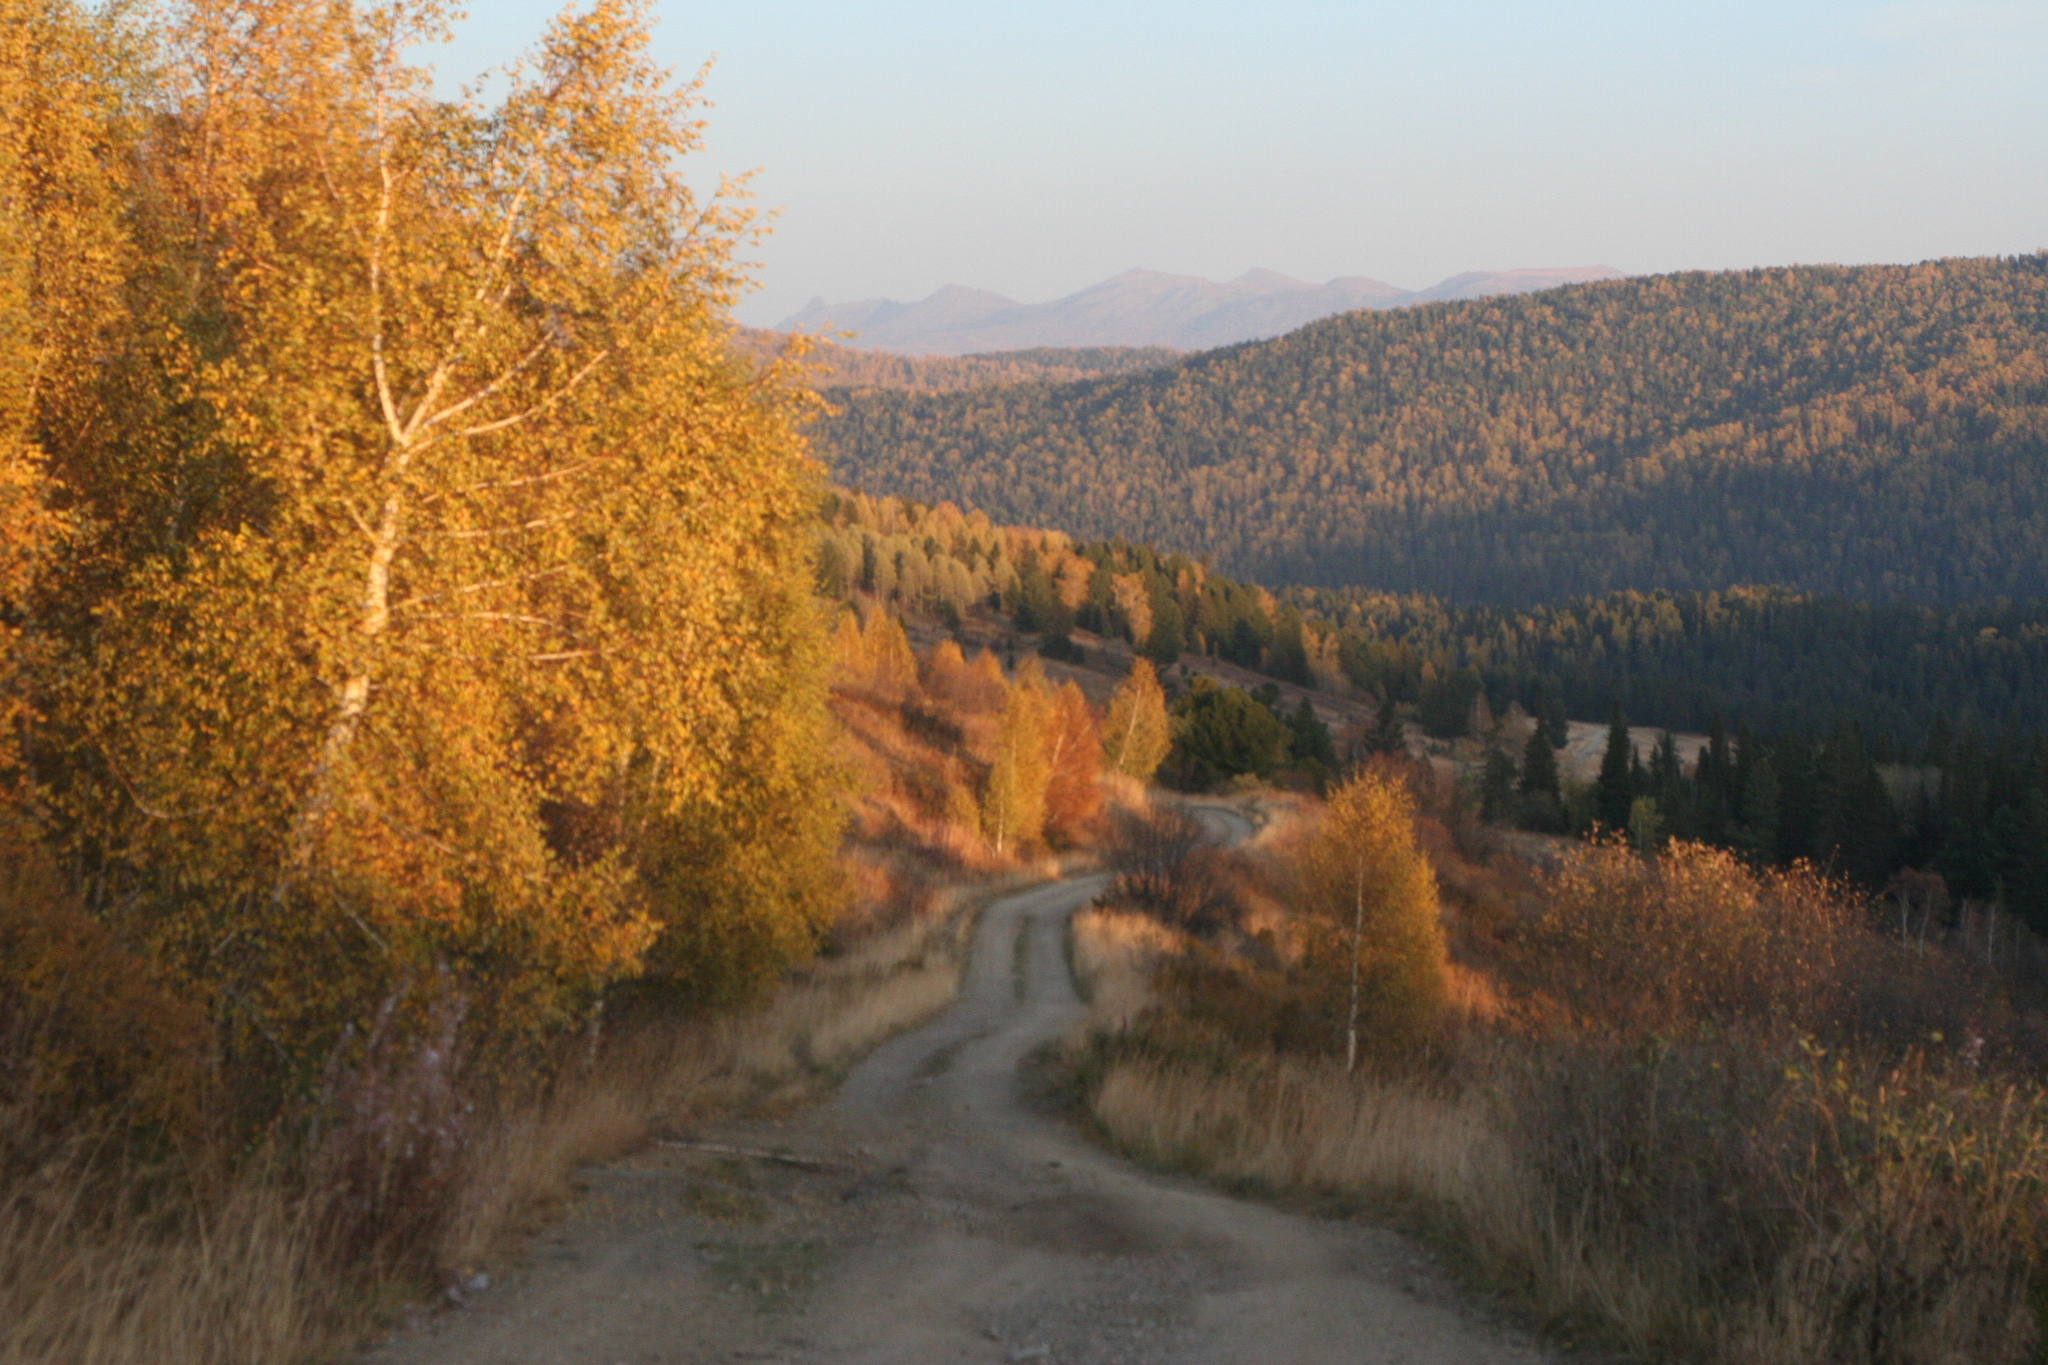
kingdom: Plantae
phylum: Tracheophyta
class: Magnoliopsida
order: Fagales
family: Betulaceae
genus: Betula
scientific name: Betula pendula
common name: Silver birch
